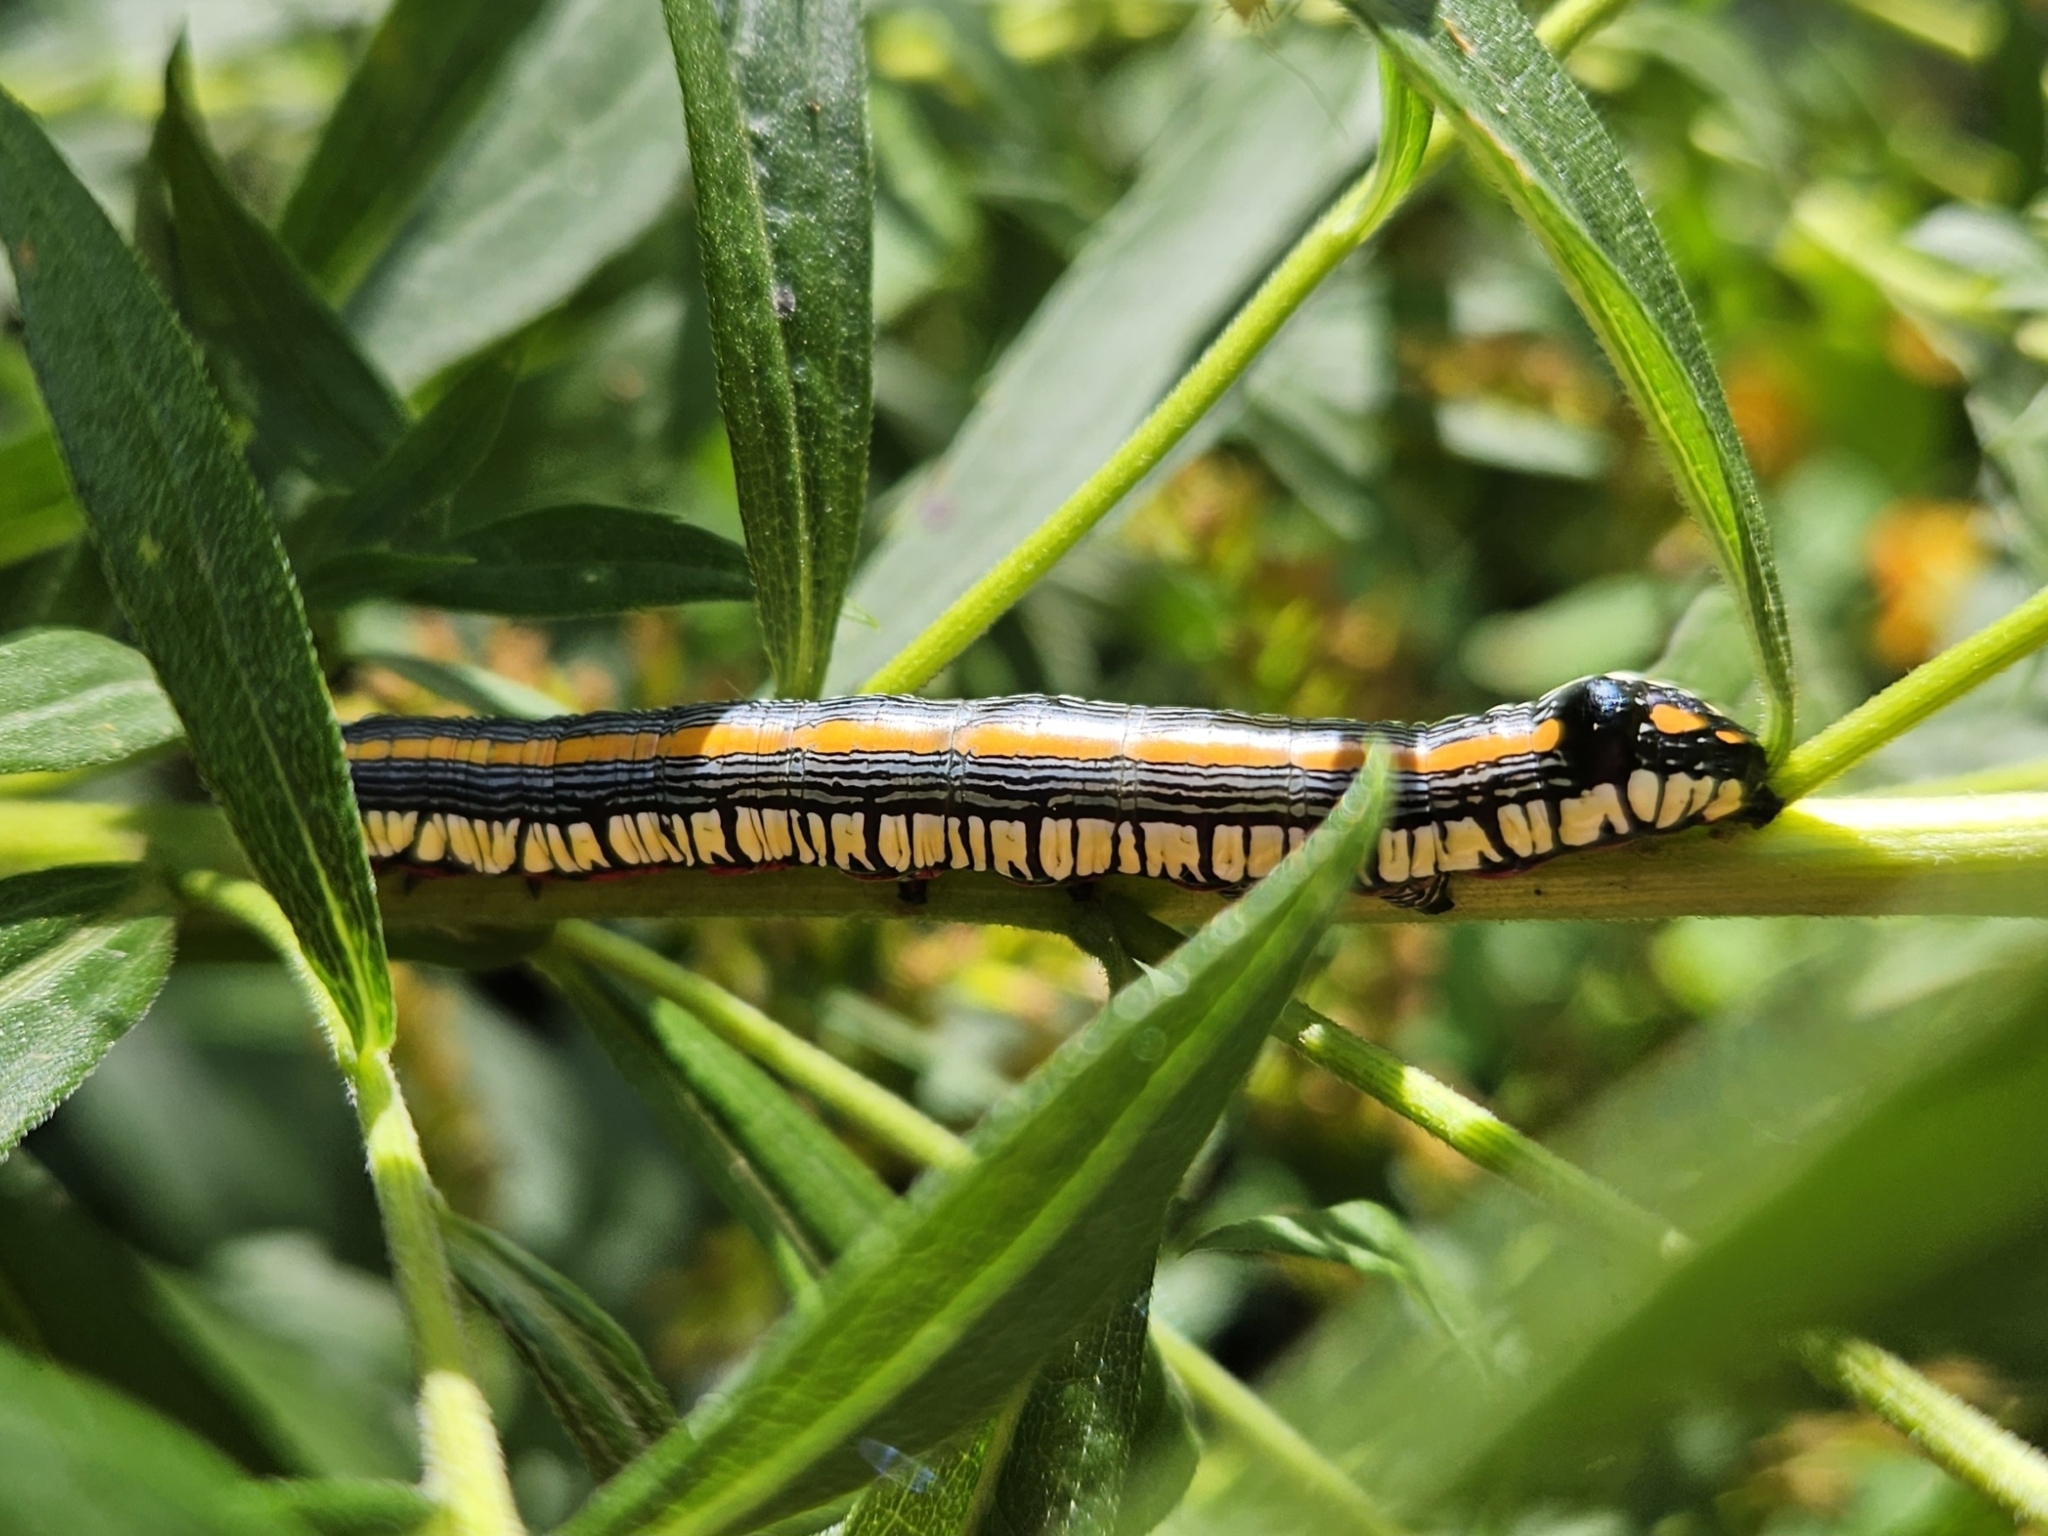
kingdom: Animalia
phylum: Arthropoda
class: Insecta
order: Lepidoptera
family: Noctuidae
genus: Cucullia
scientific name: Cucullia convexipennis
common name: Brown-hooded owlet
